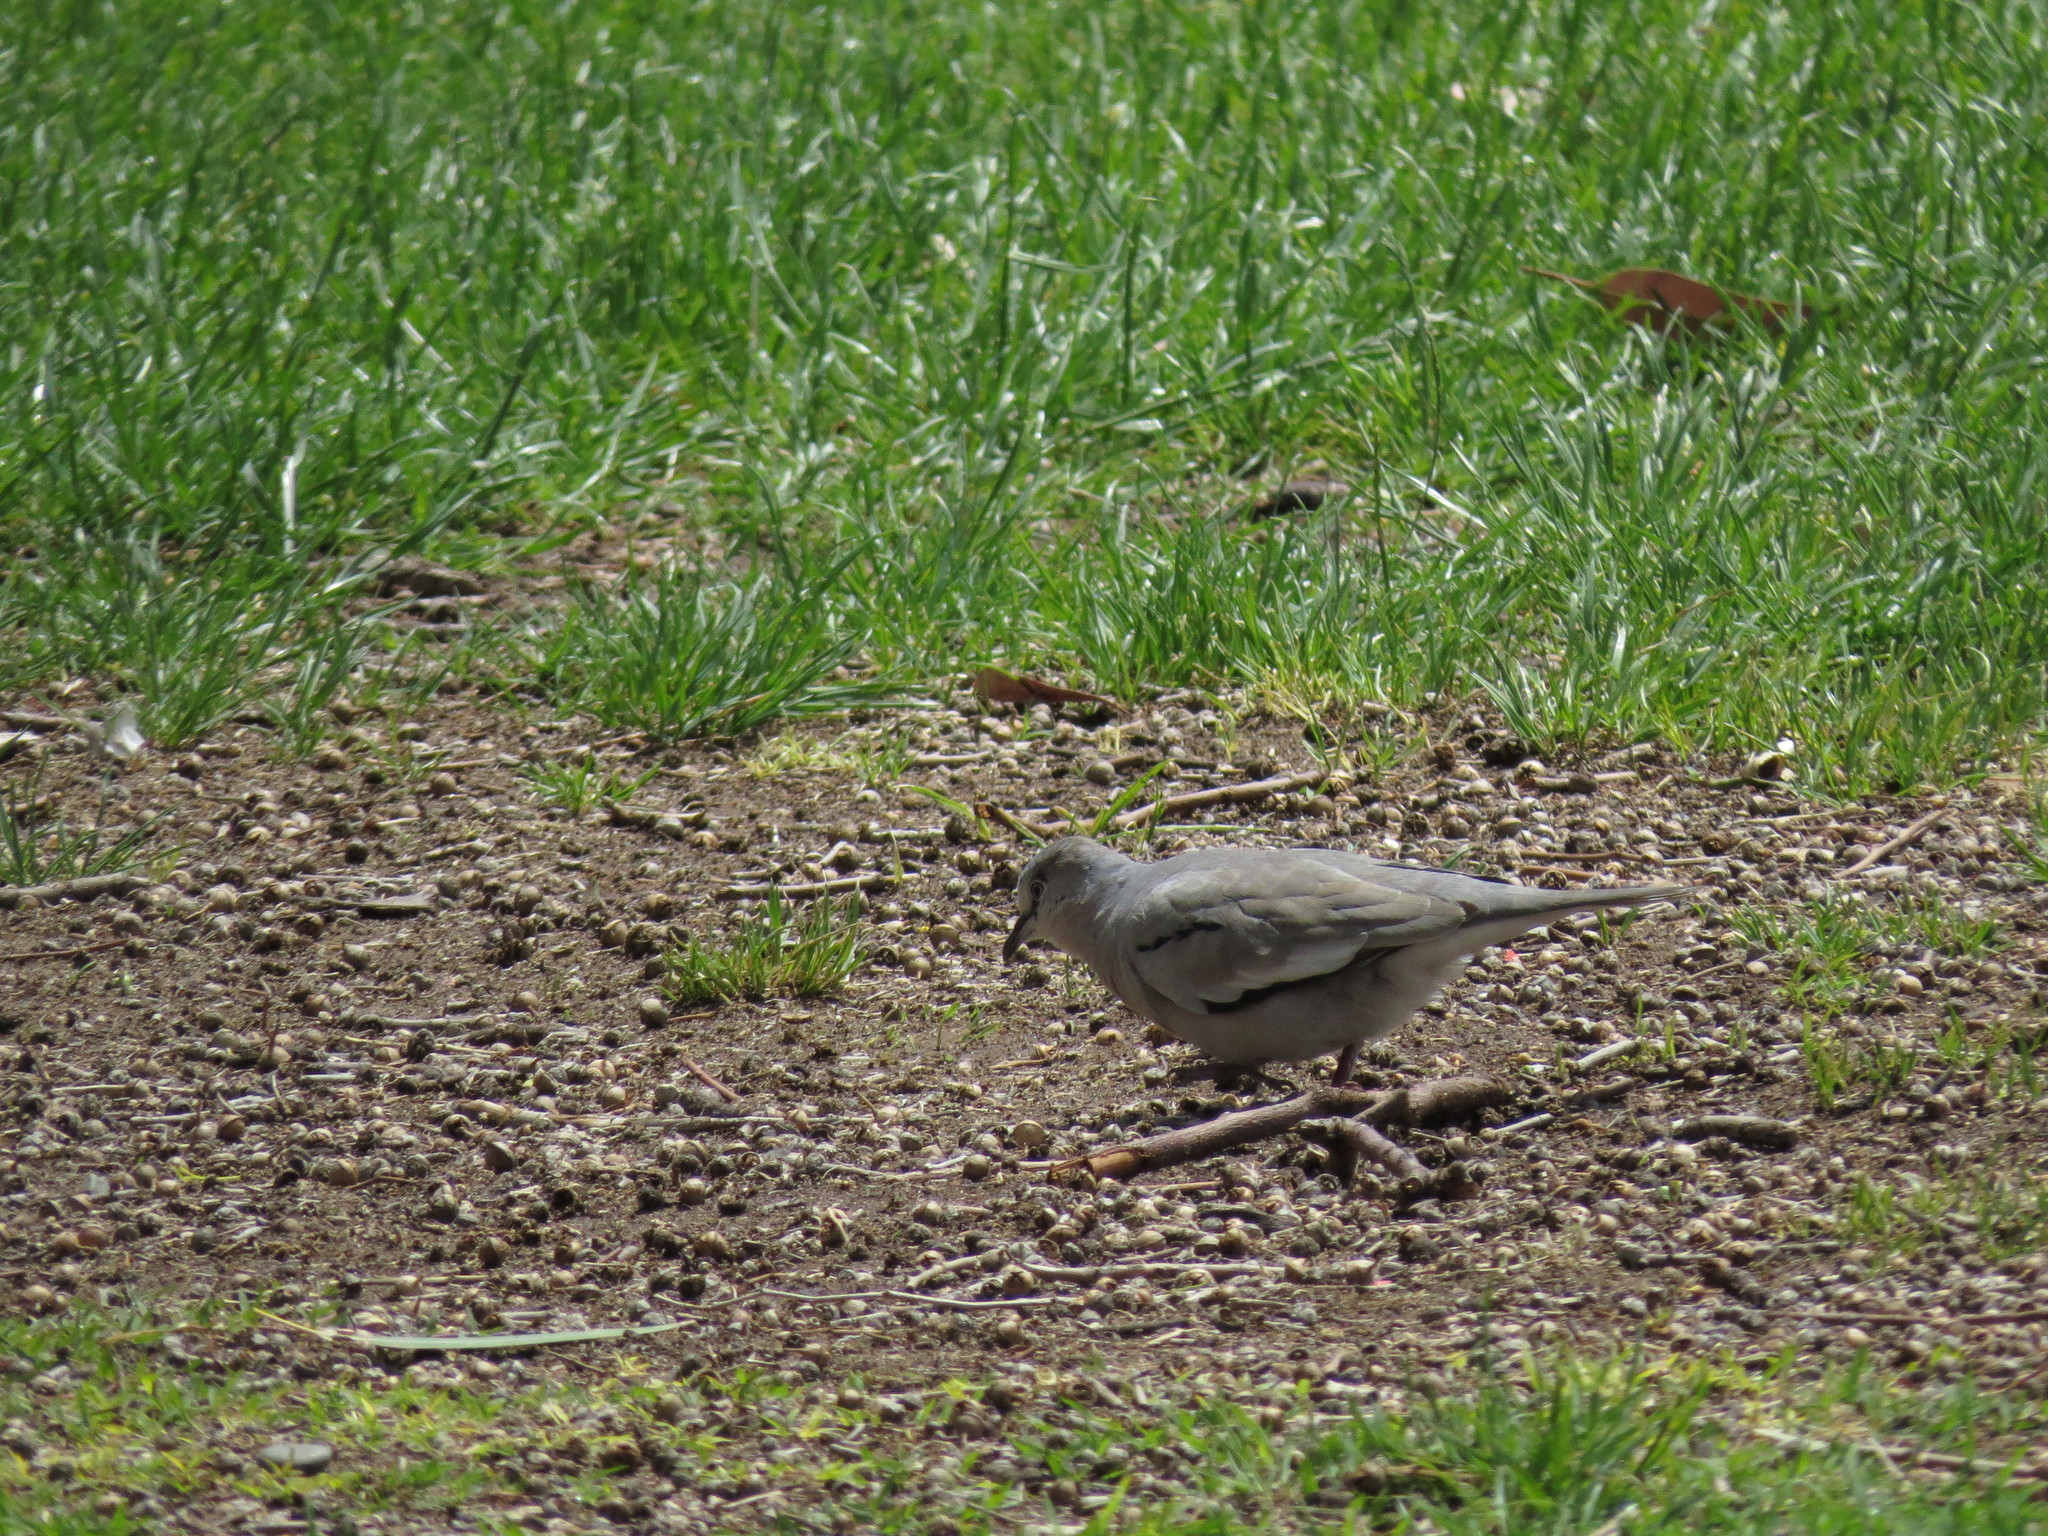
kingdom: Animalia
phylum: Chordata
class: Aves
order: Columbiformes
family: Columbidae
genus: Columbina
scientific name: Columbina picui
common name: Picui ground dove
